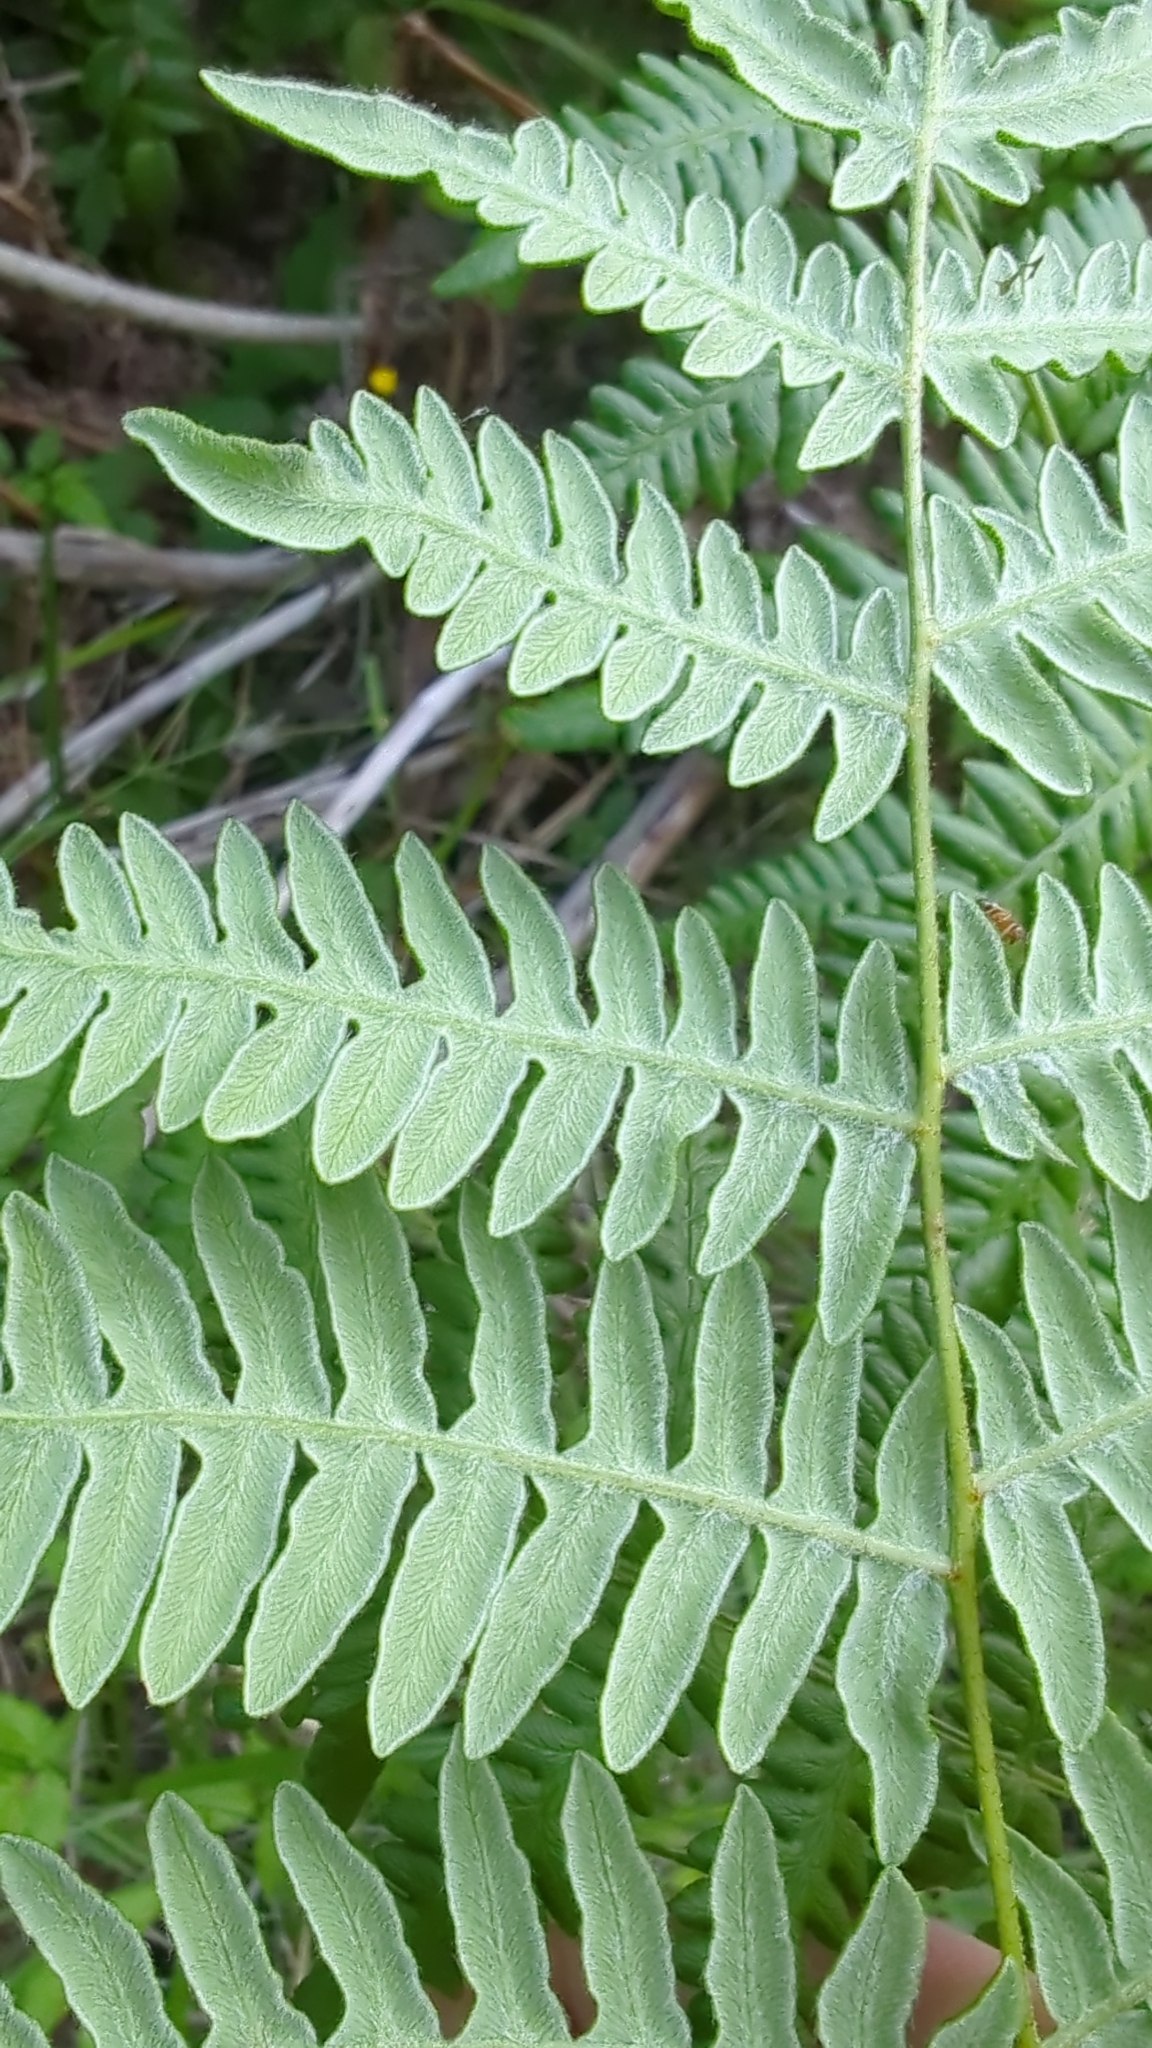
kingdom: Plantae
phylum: Tracheophyta
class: Polypodiopsida
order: Polypodiales
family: Dennstaedtiaceae
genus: Pteridium
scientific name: Pteridium aquilinum
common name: Bracken
